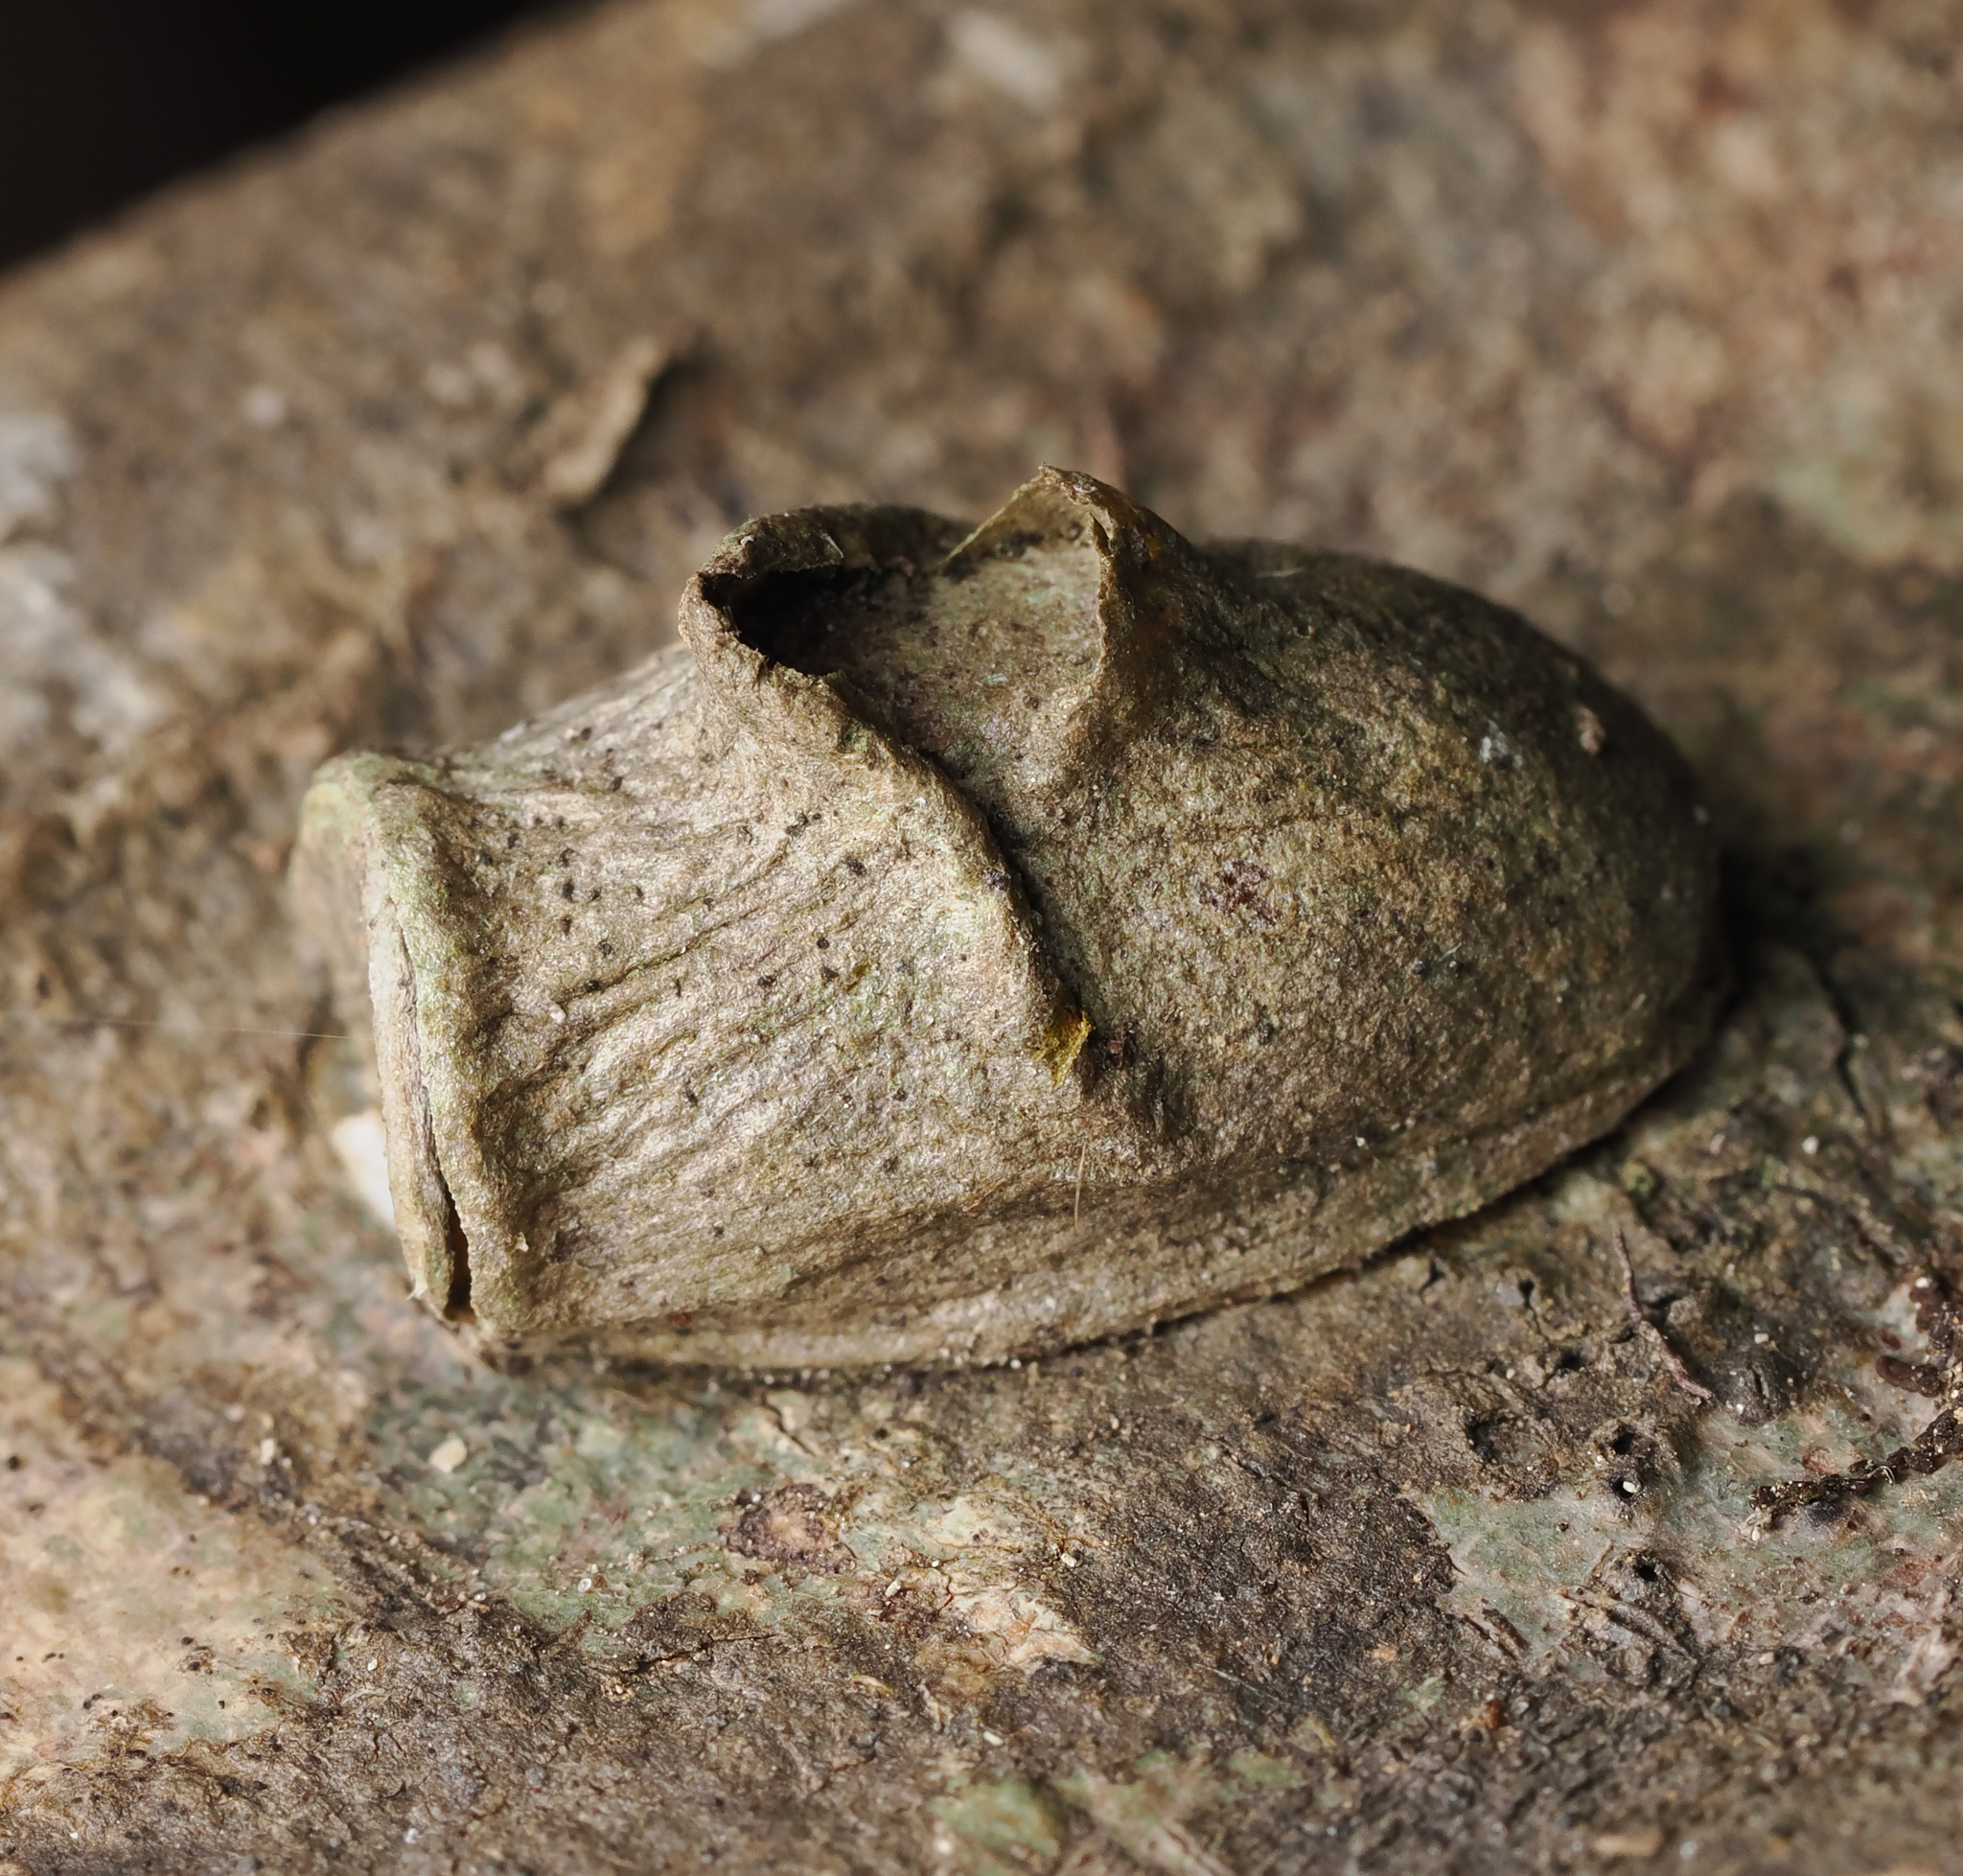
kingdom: Animalia
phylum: Arthropoda
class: Insecta
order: Lepidoptera
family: Megalopygidae
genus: Megalopyge
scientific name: Megalopyge
